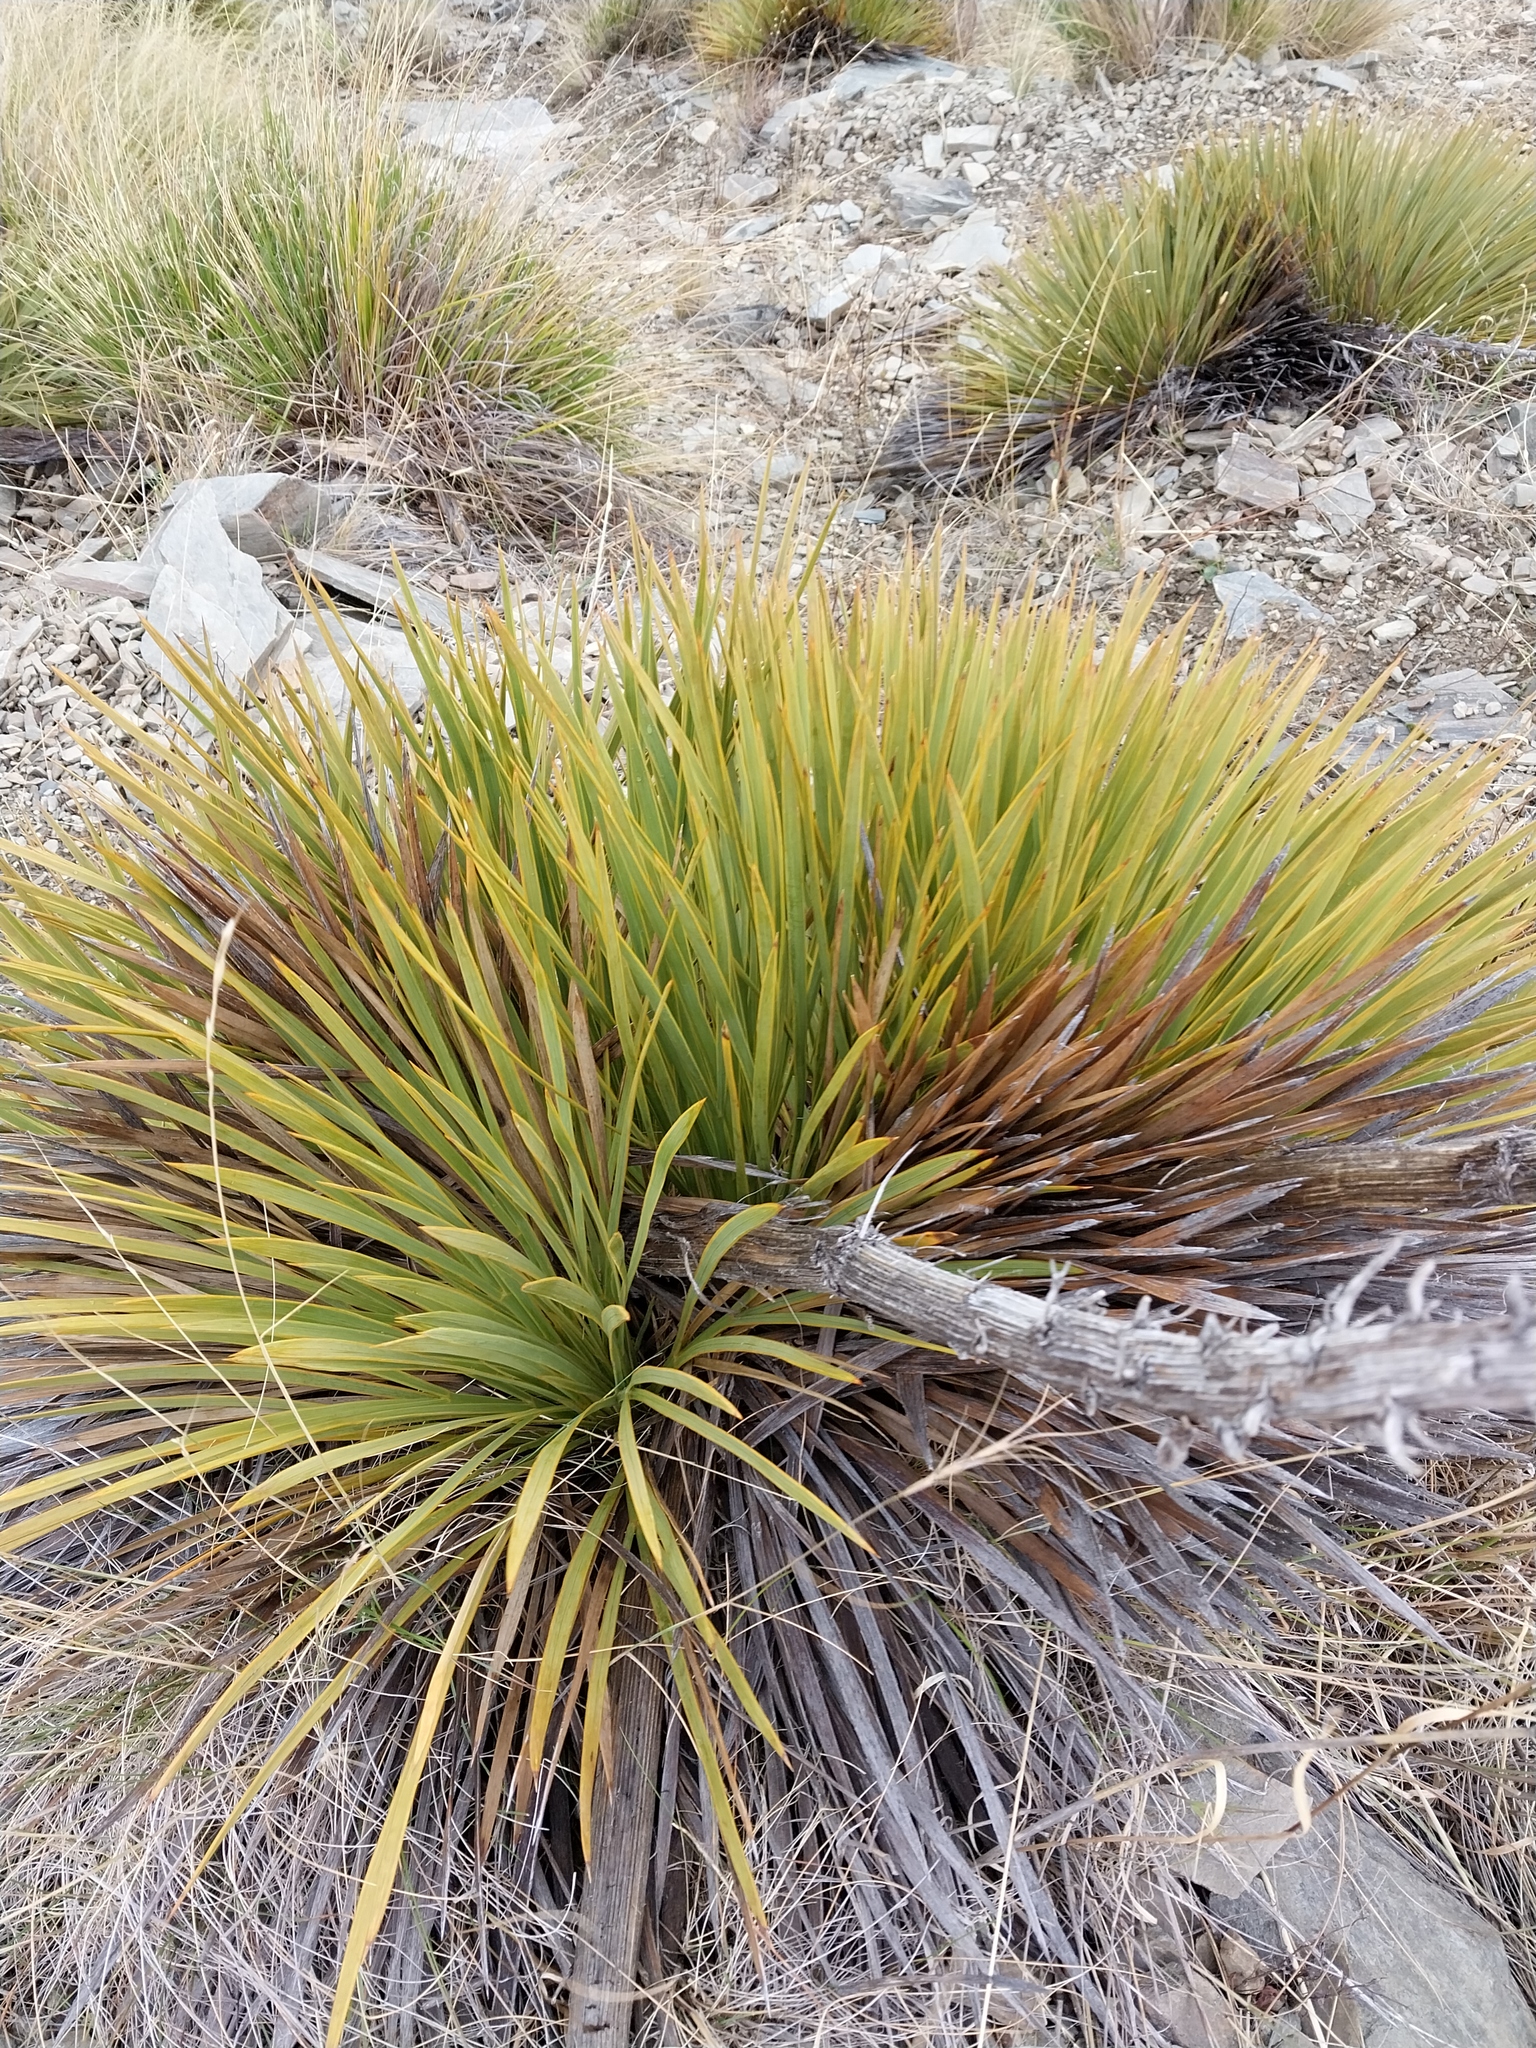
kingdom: Plantae
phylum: Tracheophyta
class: Magnoliopsida
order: Apiales
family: Apiaceae
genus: Aciphylla
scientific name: Aciphylla aurea
